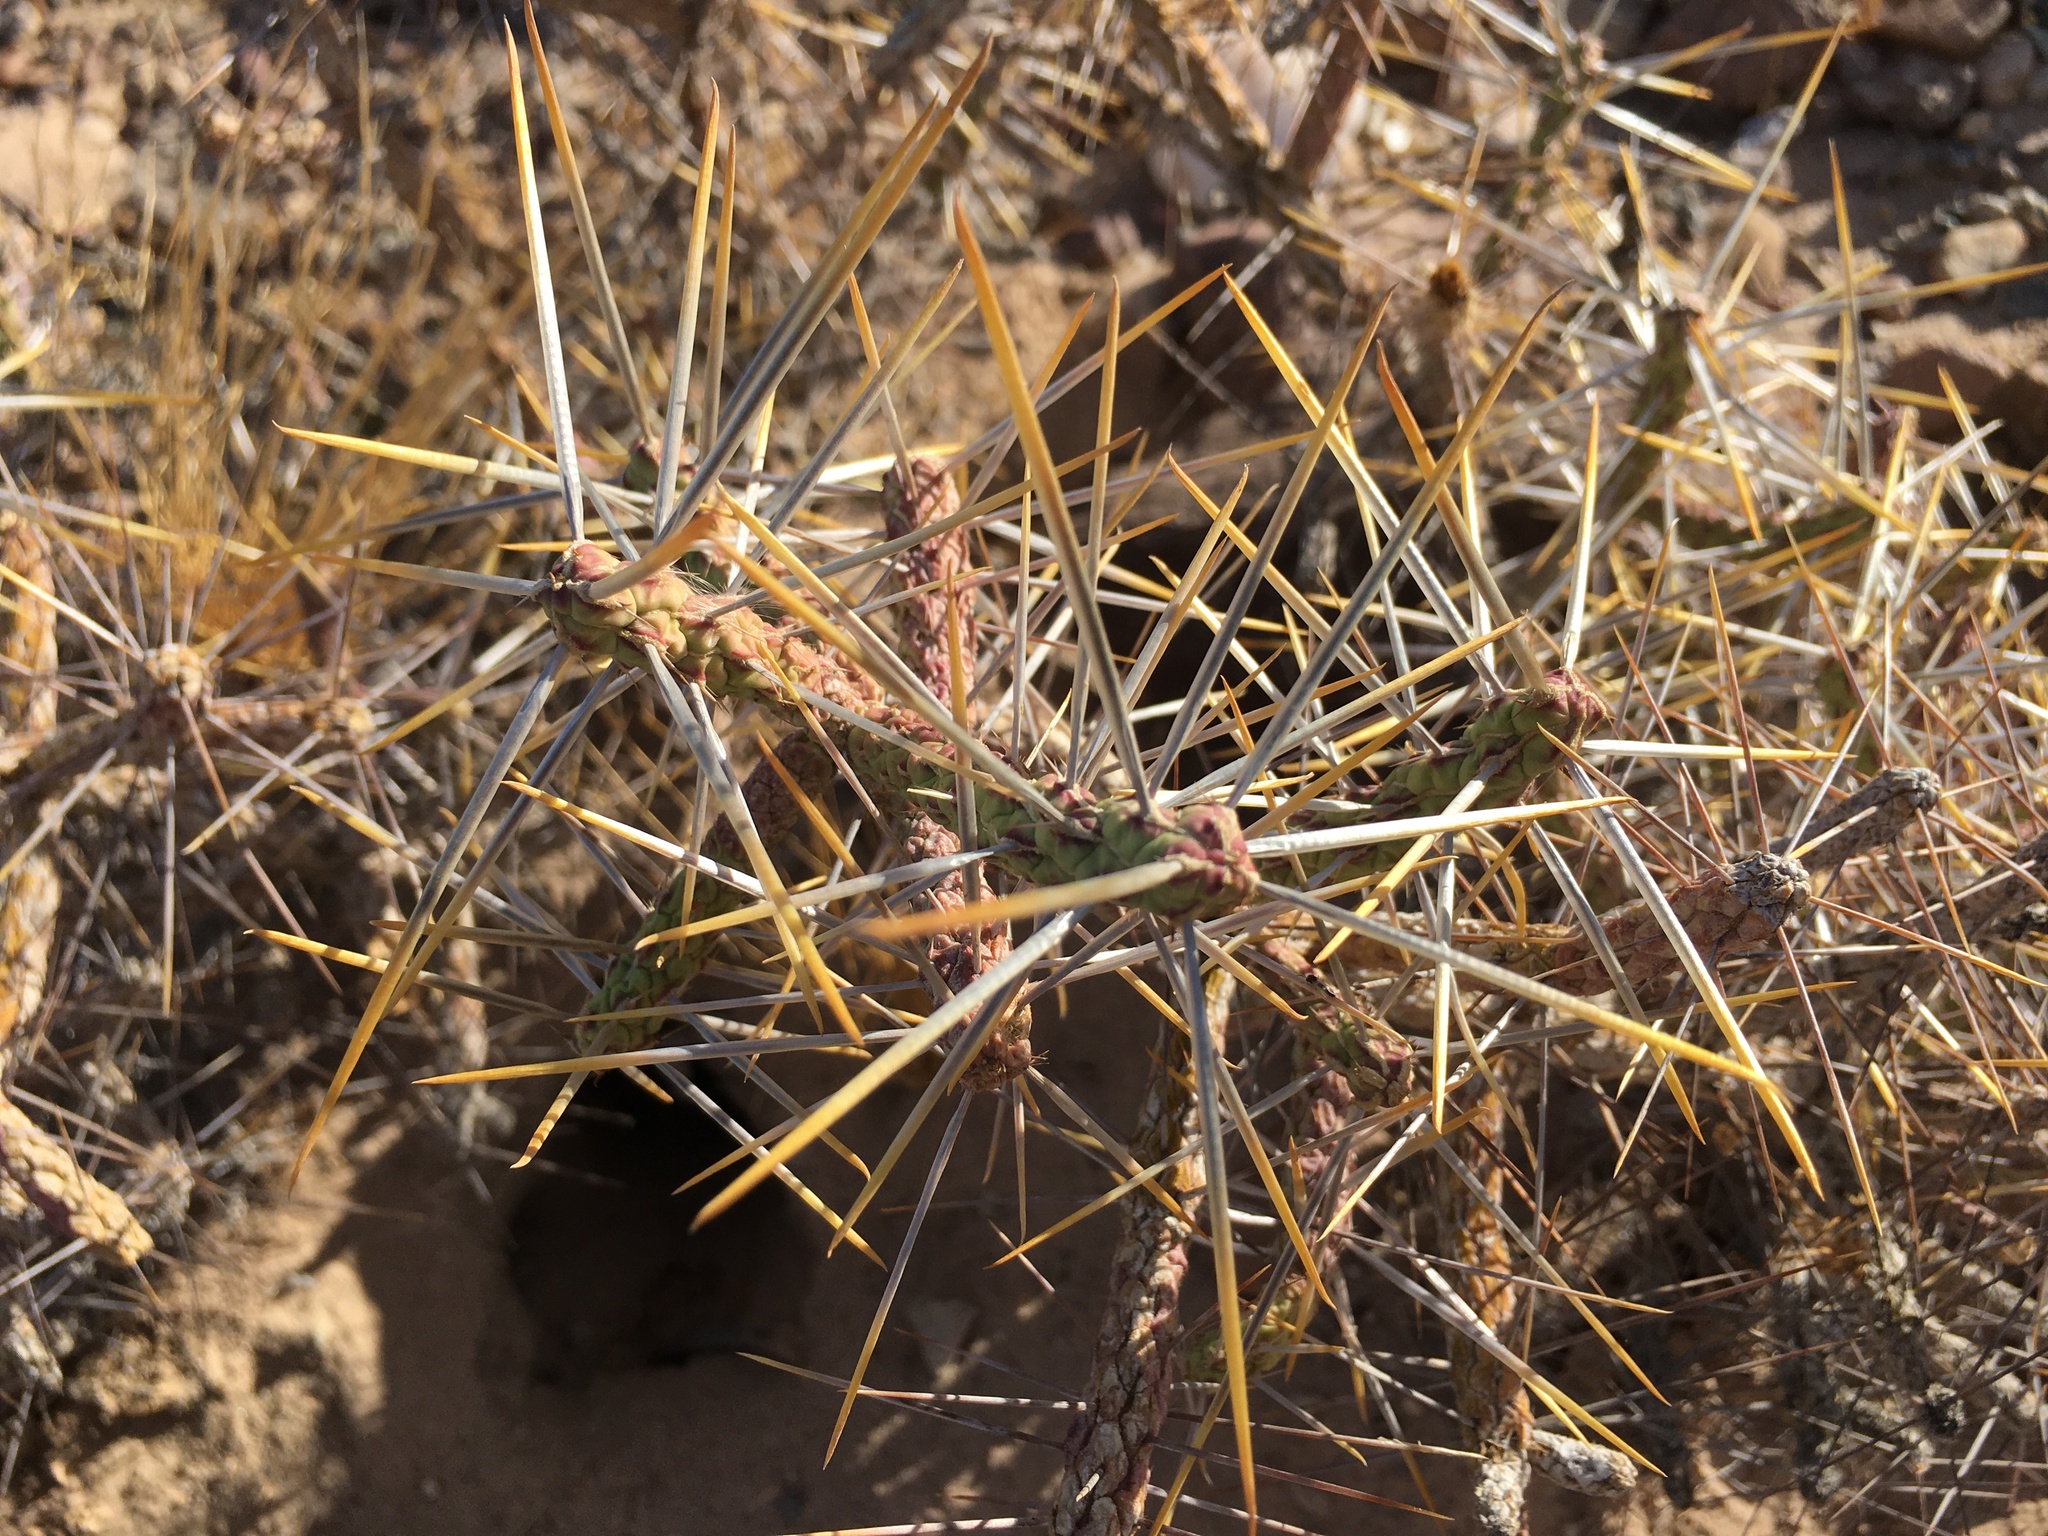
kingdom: Plantae
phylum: Tracheophyta
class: Magnoliopsida
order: Caryophyllales
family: Cactaceae
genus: Cylindropuntia
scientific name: Cylindropuntia ramosissima
